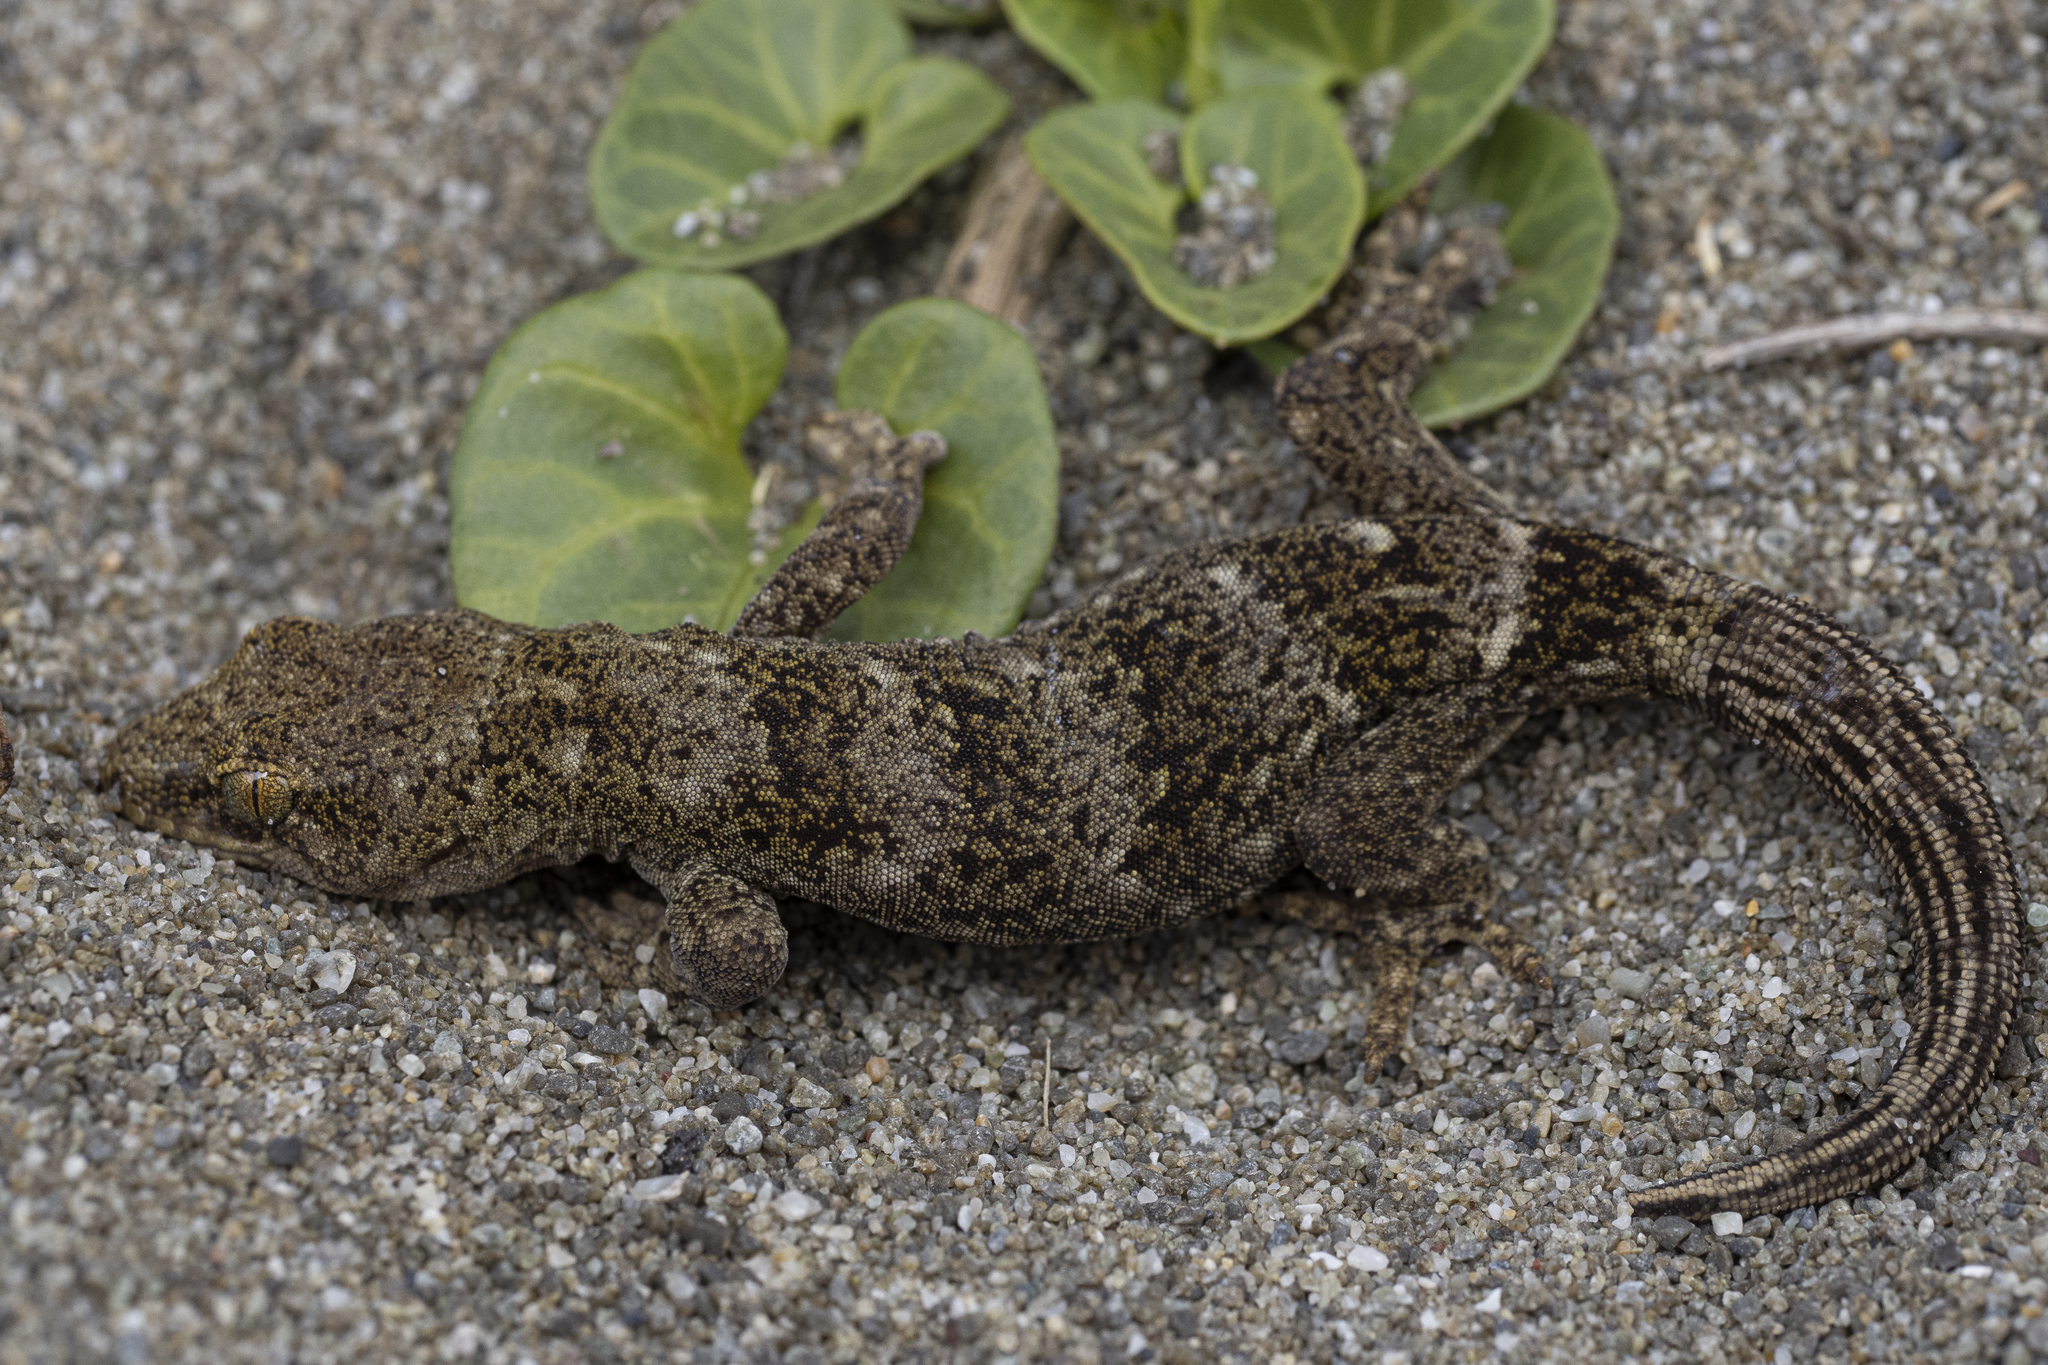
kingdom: Animalia
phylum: Chordata
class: Squamata
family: Diplodactylidae
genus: Woodworthia
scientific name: Woodworthia brunnea
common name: Canterbury gecko
